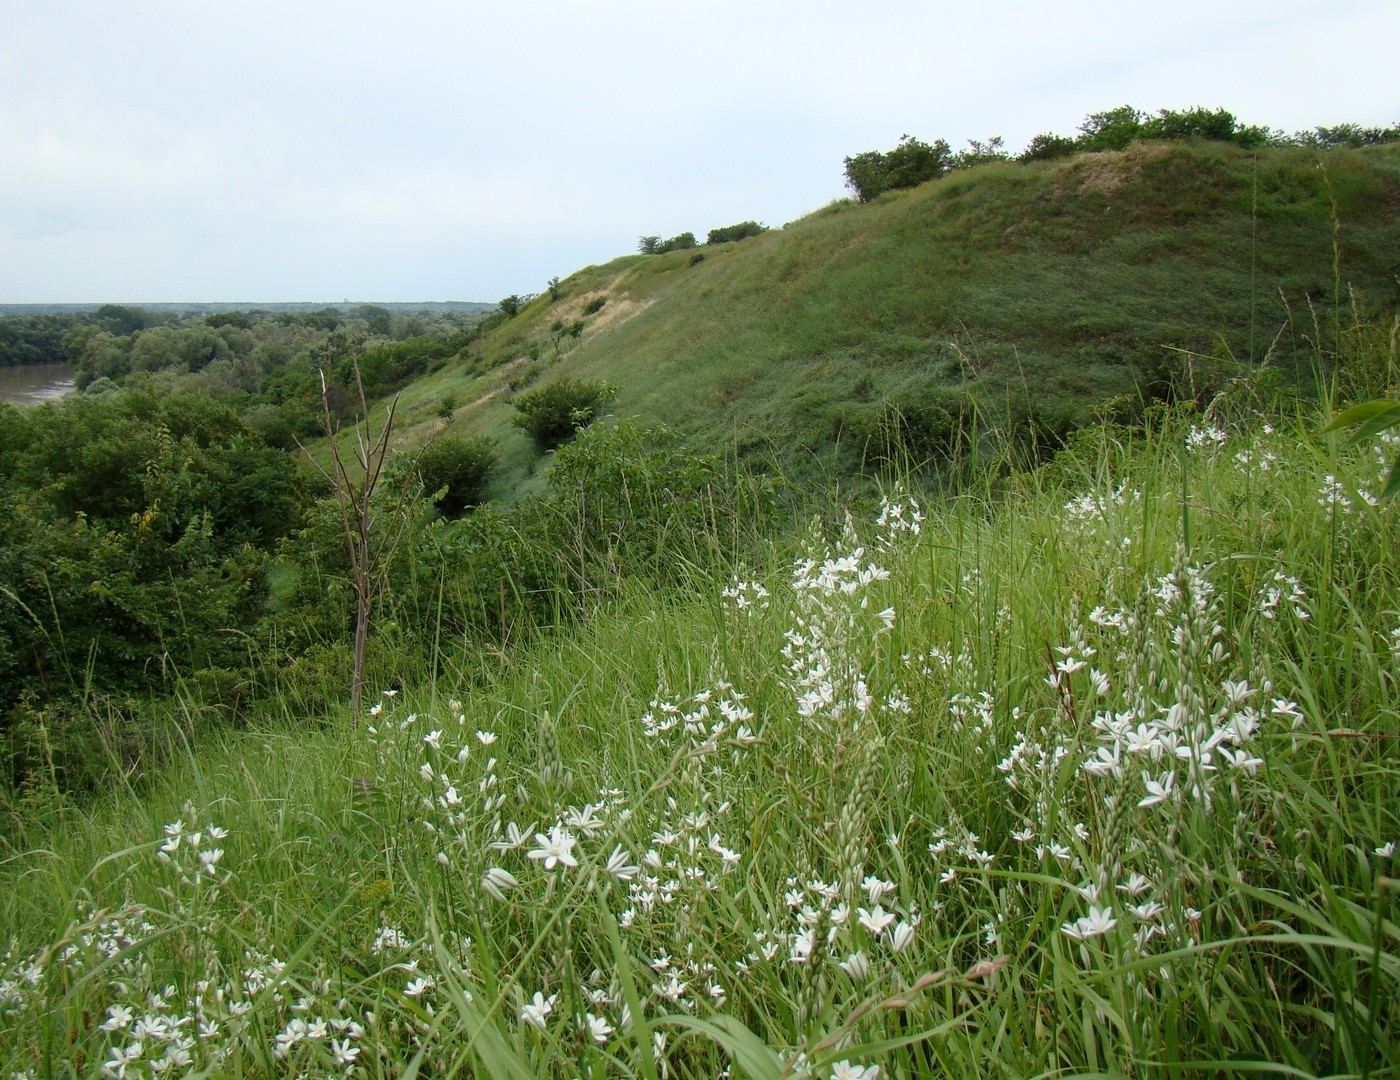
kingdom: Plantae
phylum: Tracheophyta
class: Liliopsida
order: Asparagales
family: Asparagaceae
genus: Ornithogalum
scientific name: Ornithogalum ponticum
